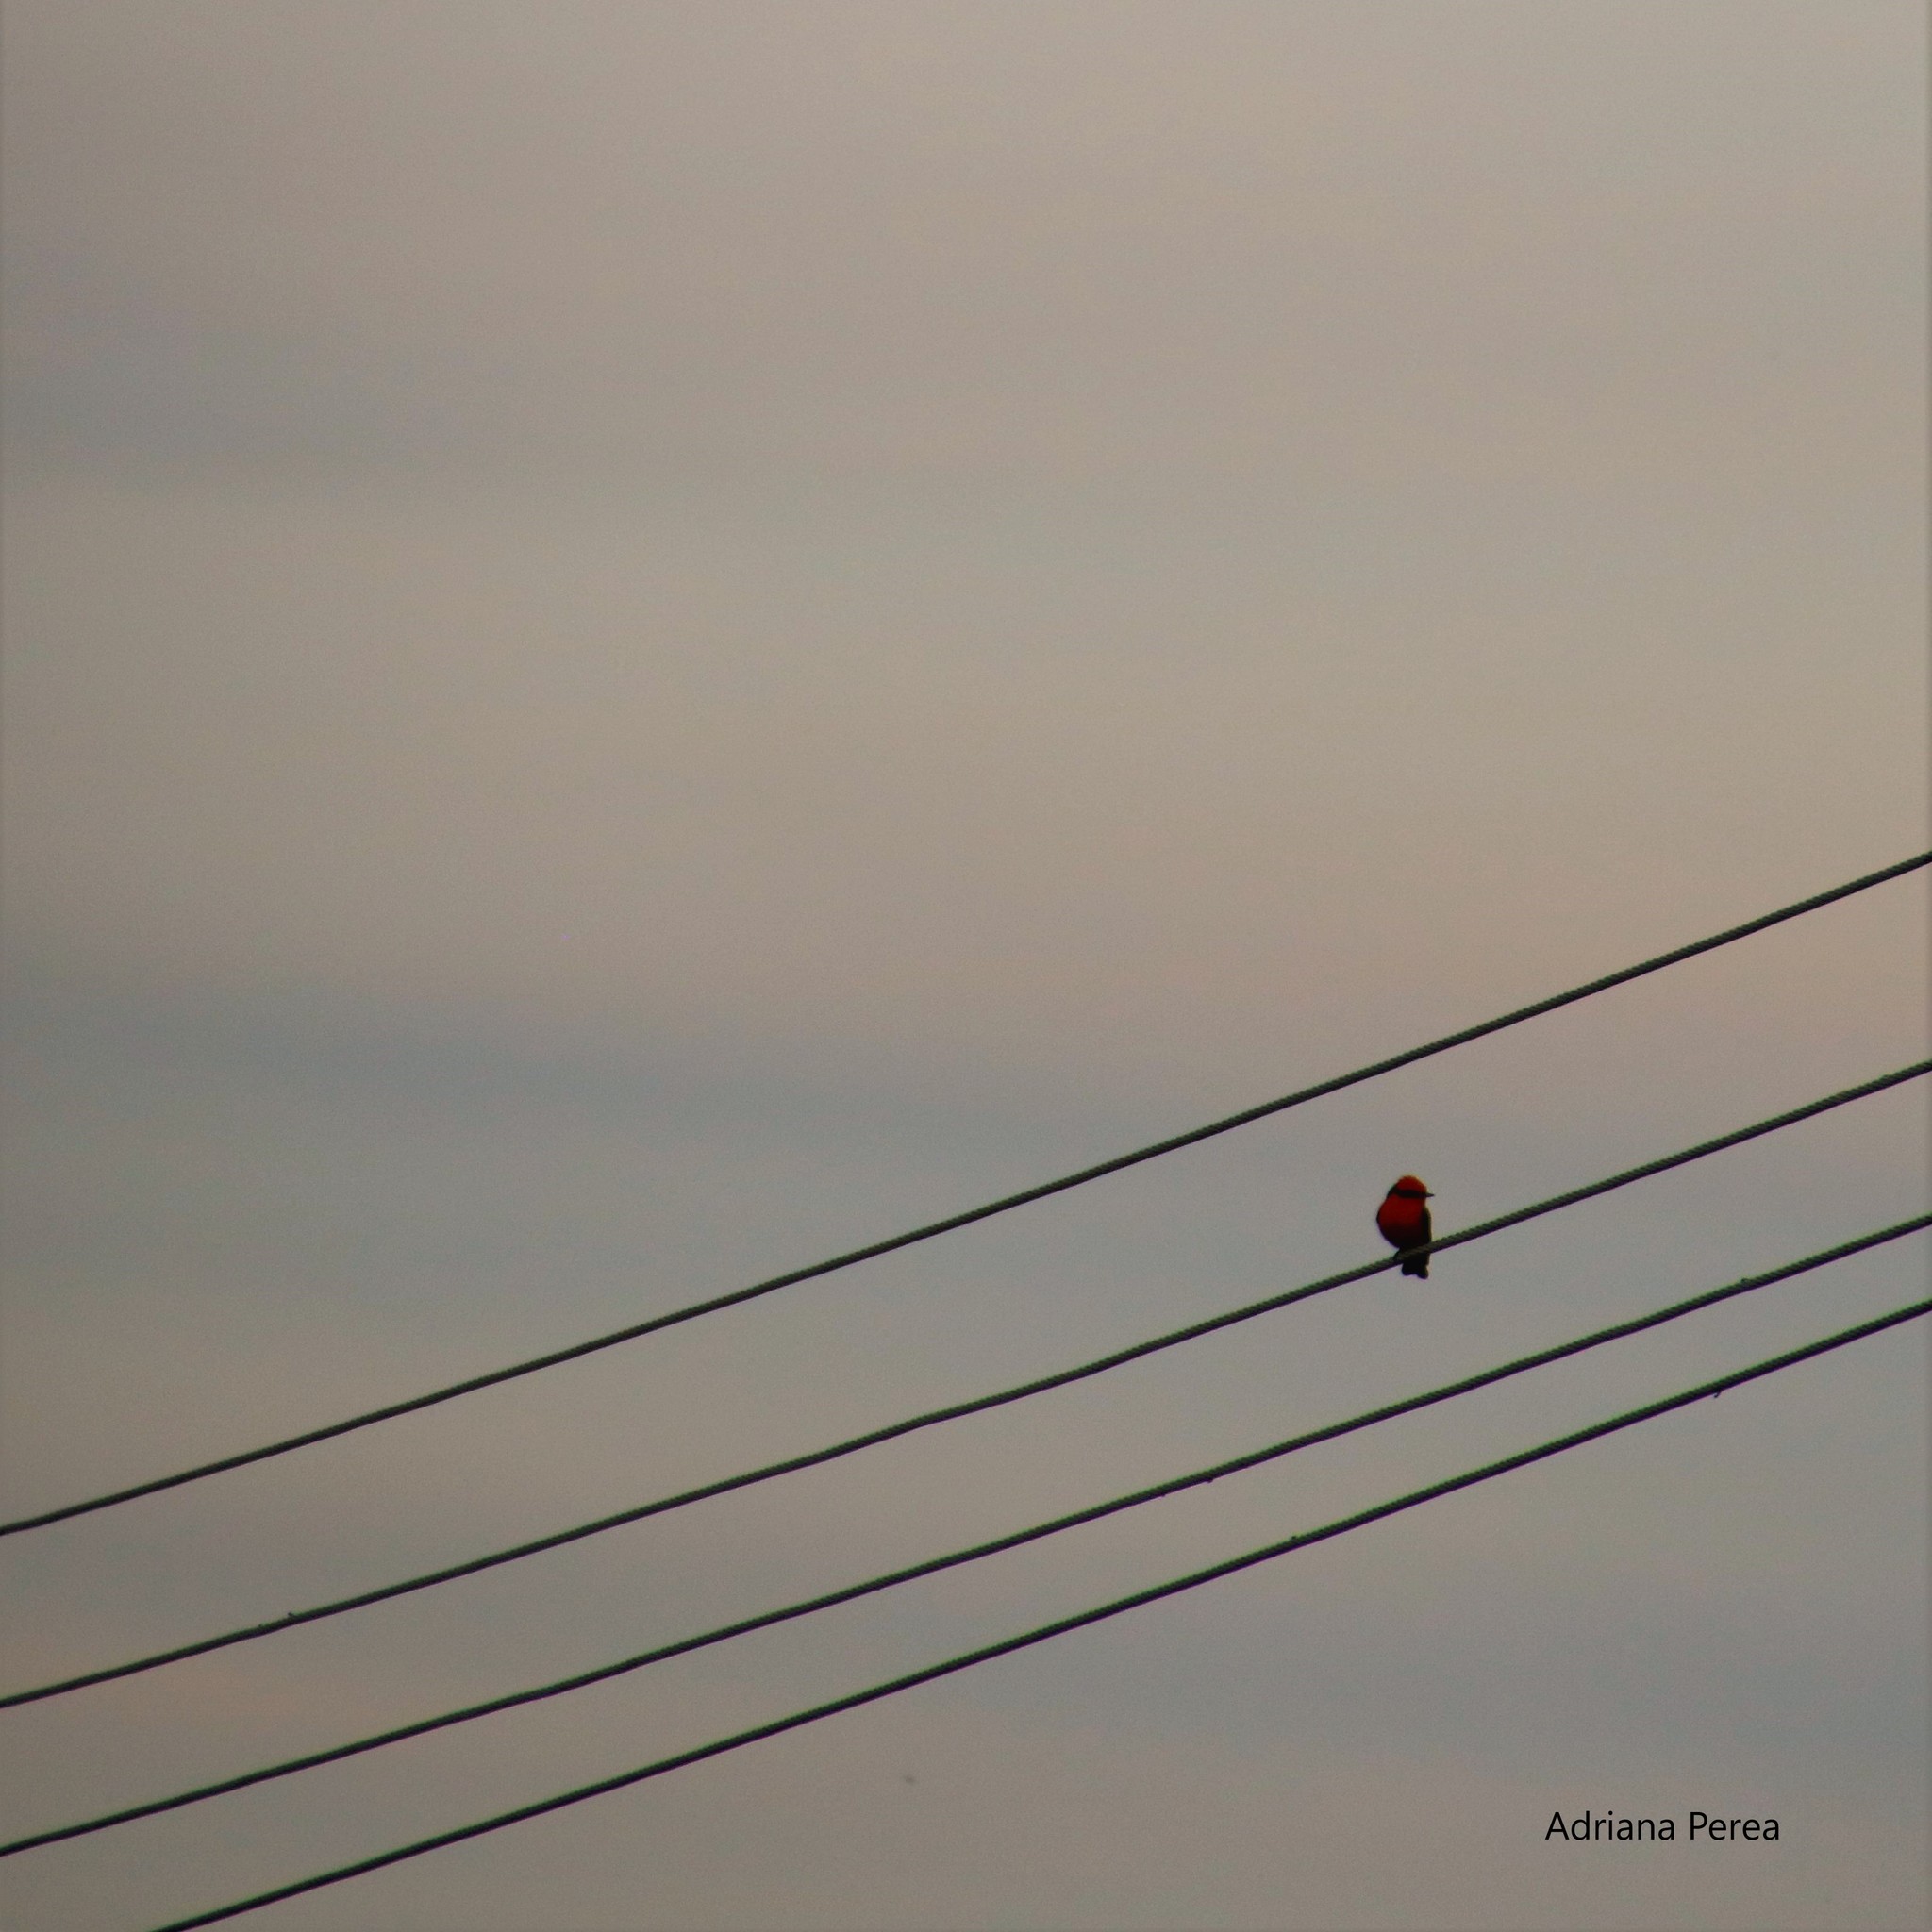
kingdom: Animalia
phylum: Chordata
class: Aves
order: Passeriformes
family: Tyrannidae
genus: Pyrocephalus
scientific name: Pyrocephalus rubinus
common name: Vermilion flycatcher
